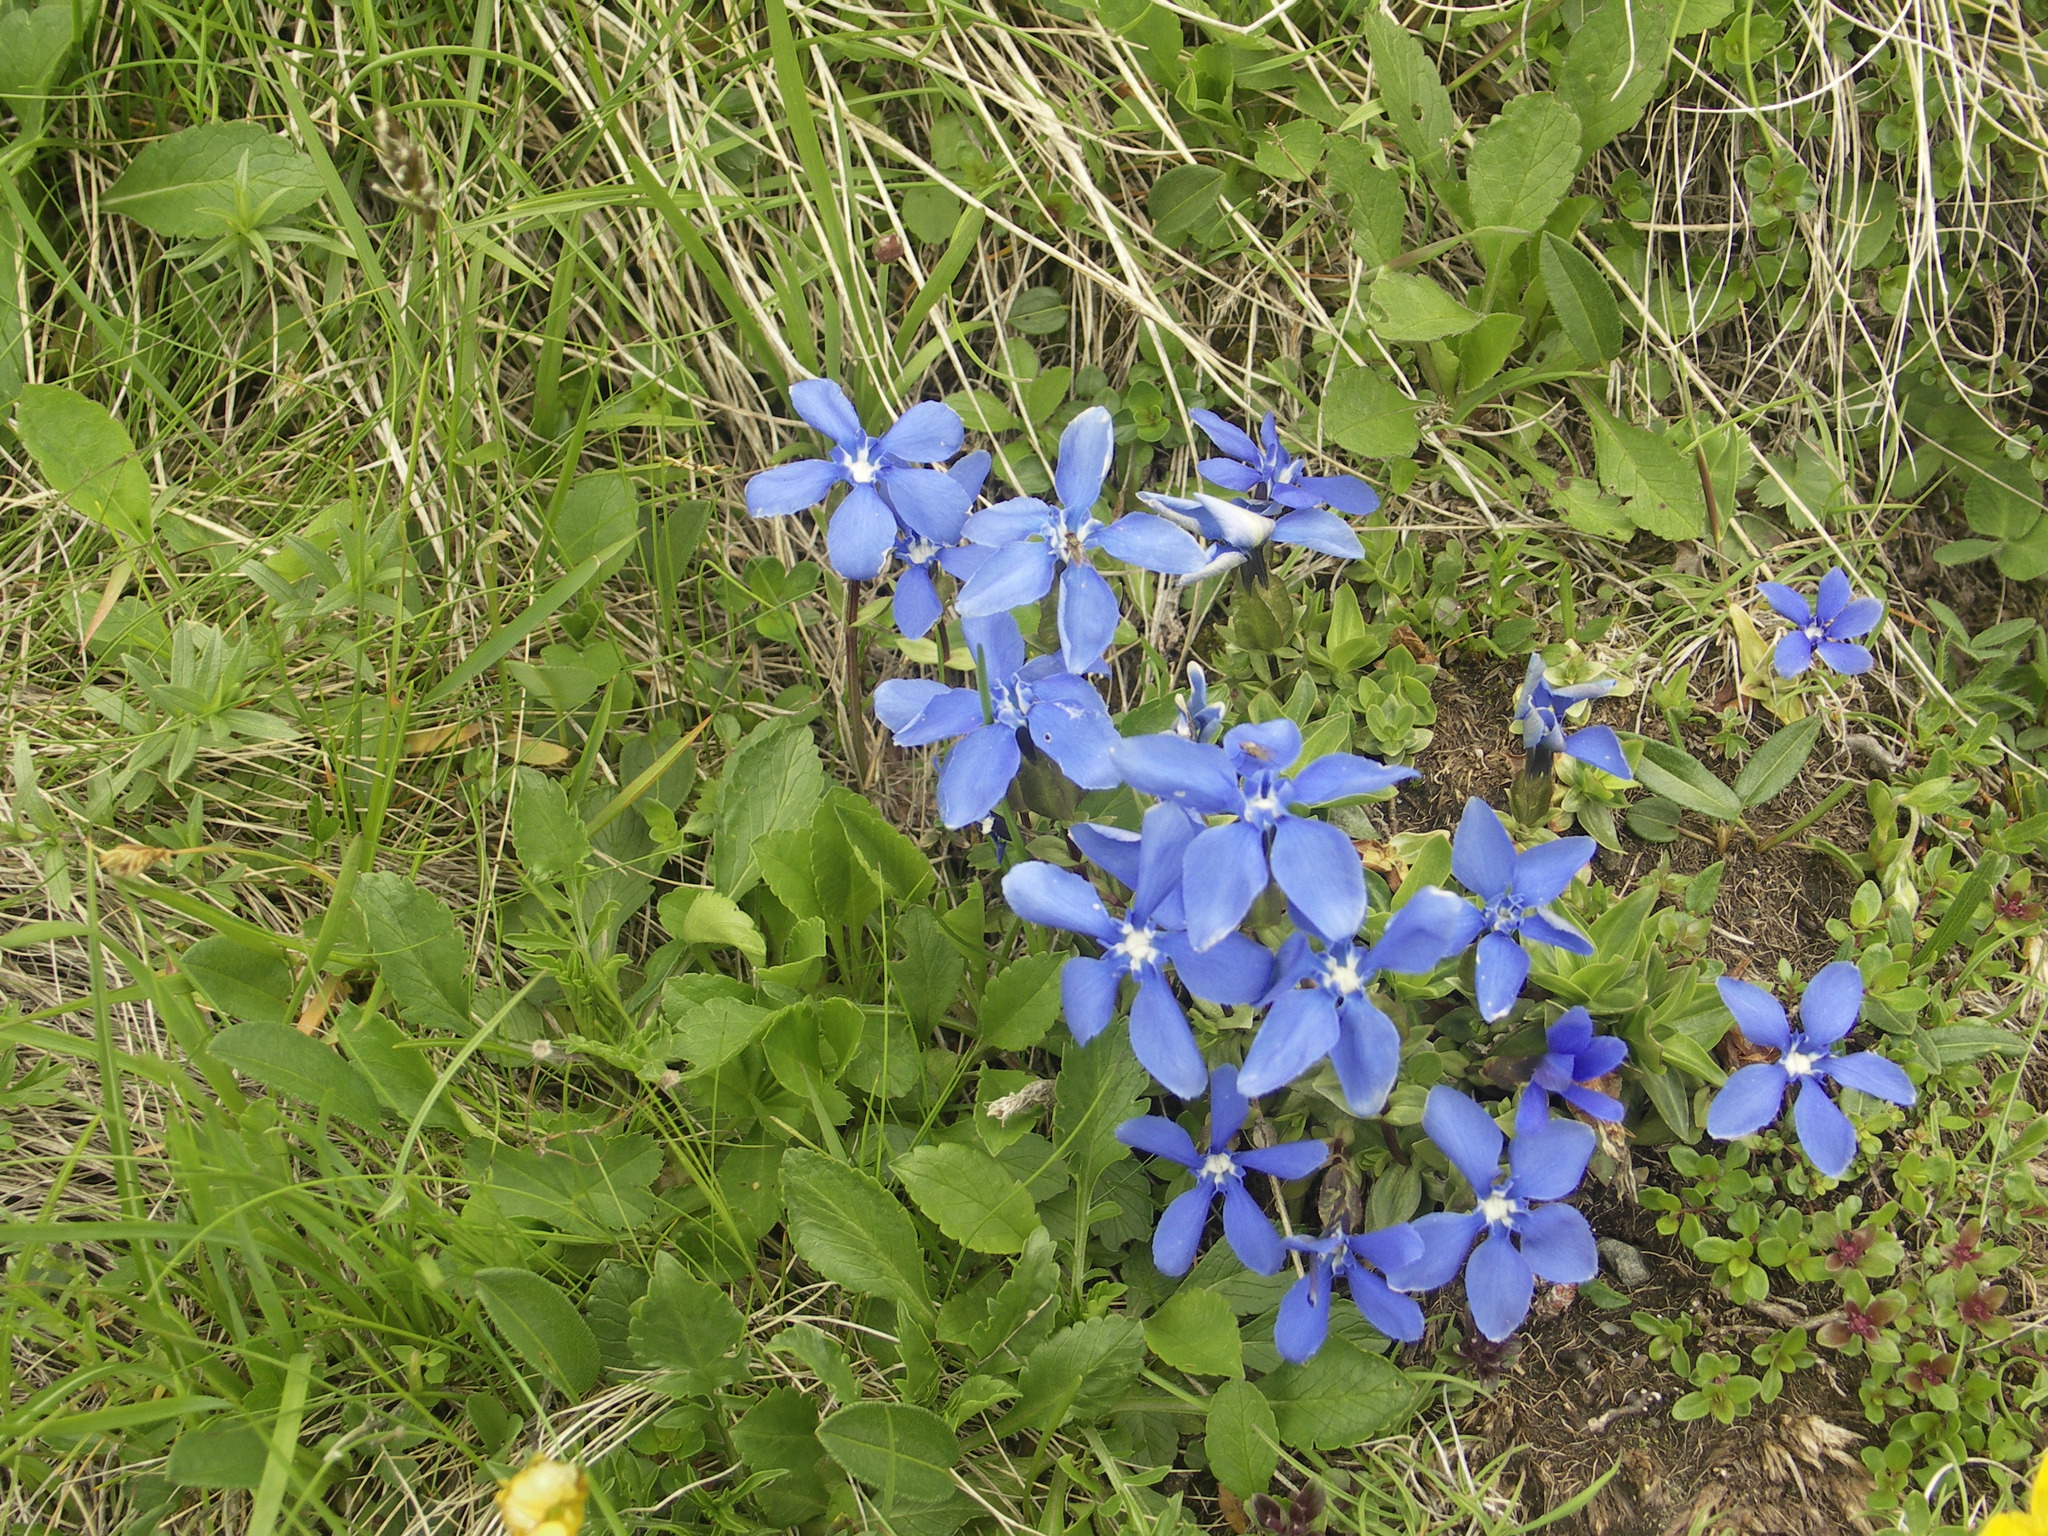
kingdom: Plantae
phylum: Tracheophyta
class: Magnoliopsida
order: Gentianales
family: Gentianaceae
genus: Gentiana
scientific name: Gentiana verna
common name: Spring gentian
